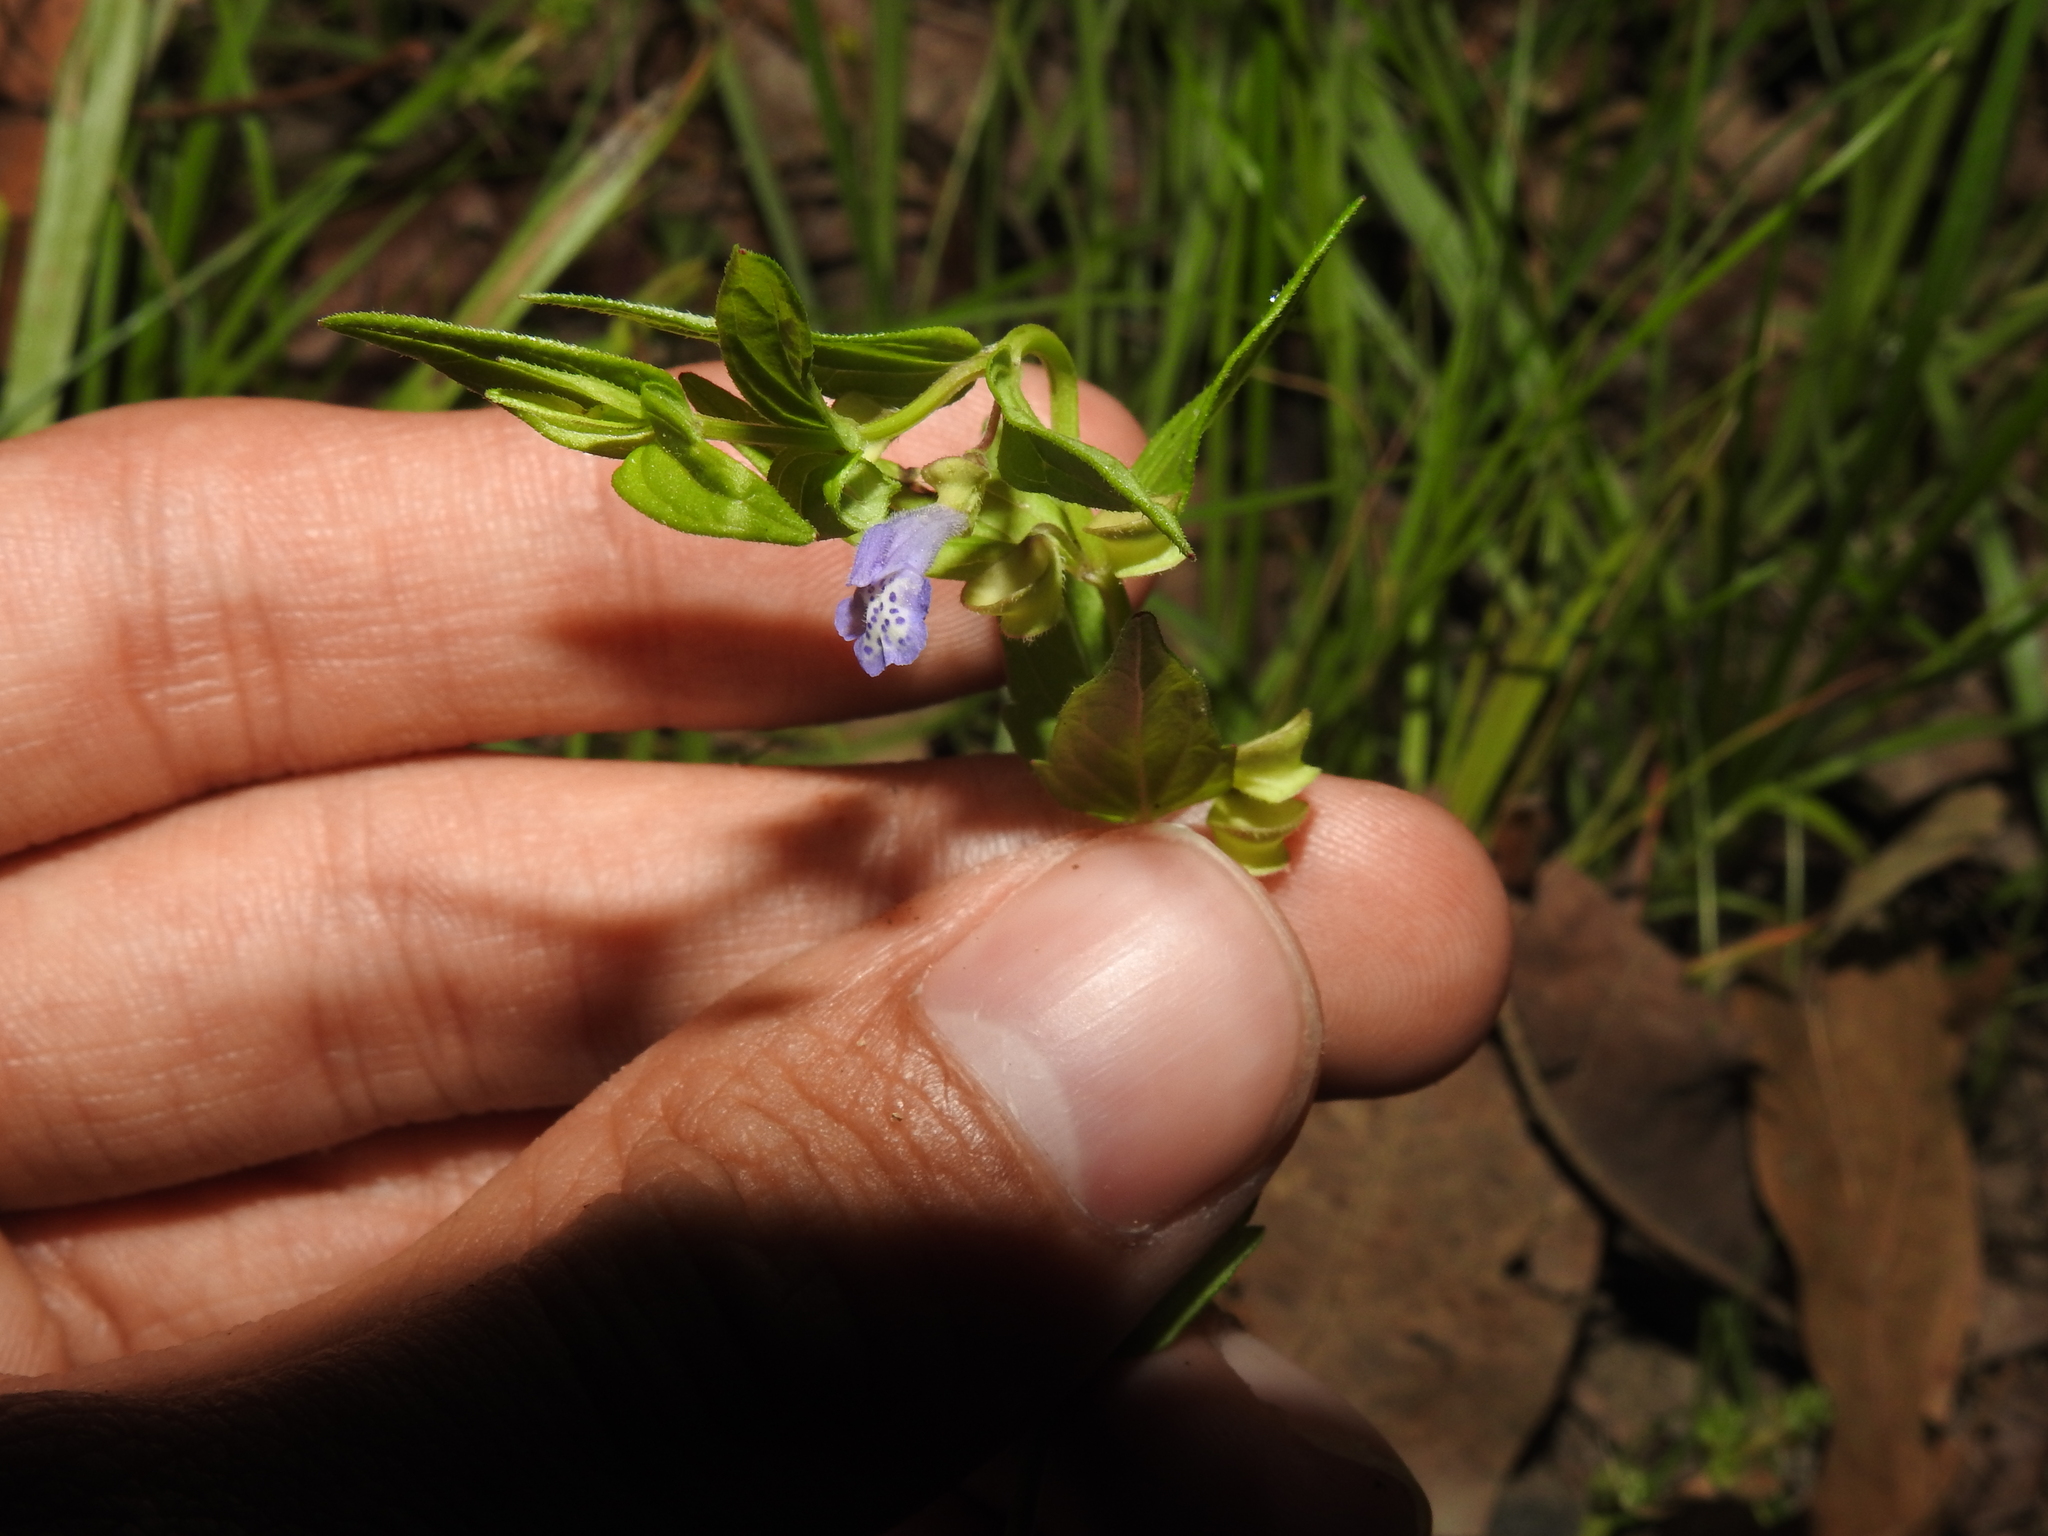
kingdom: Plantae
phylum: Tracheophyta
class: Magnoliopsida
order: Lamiales
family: Lamiaceae
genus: Scutellaria
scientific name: Scutellaria parvula
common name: Little scullcap
